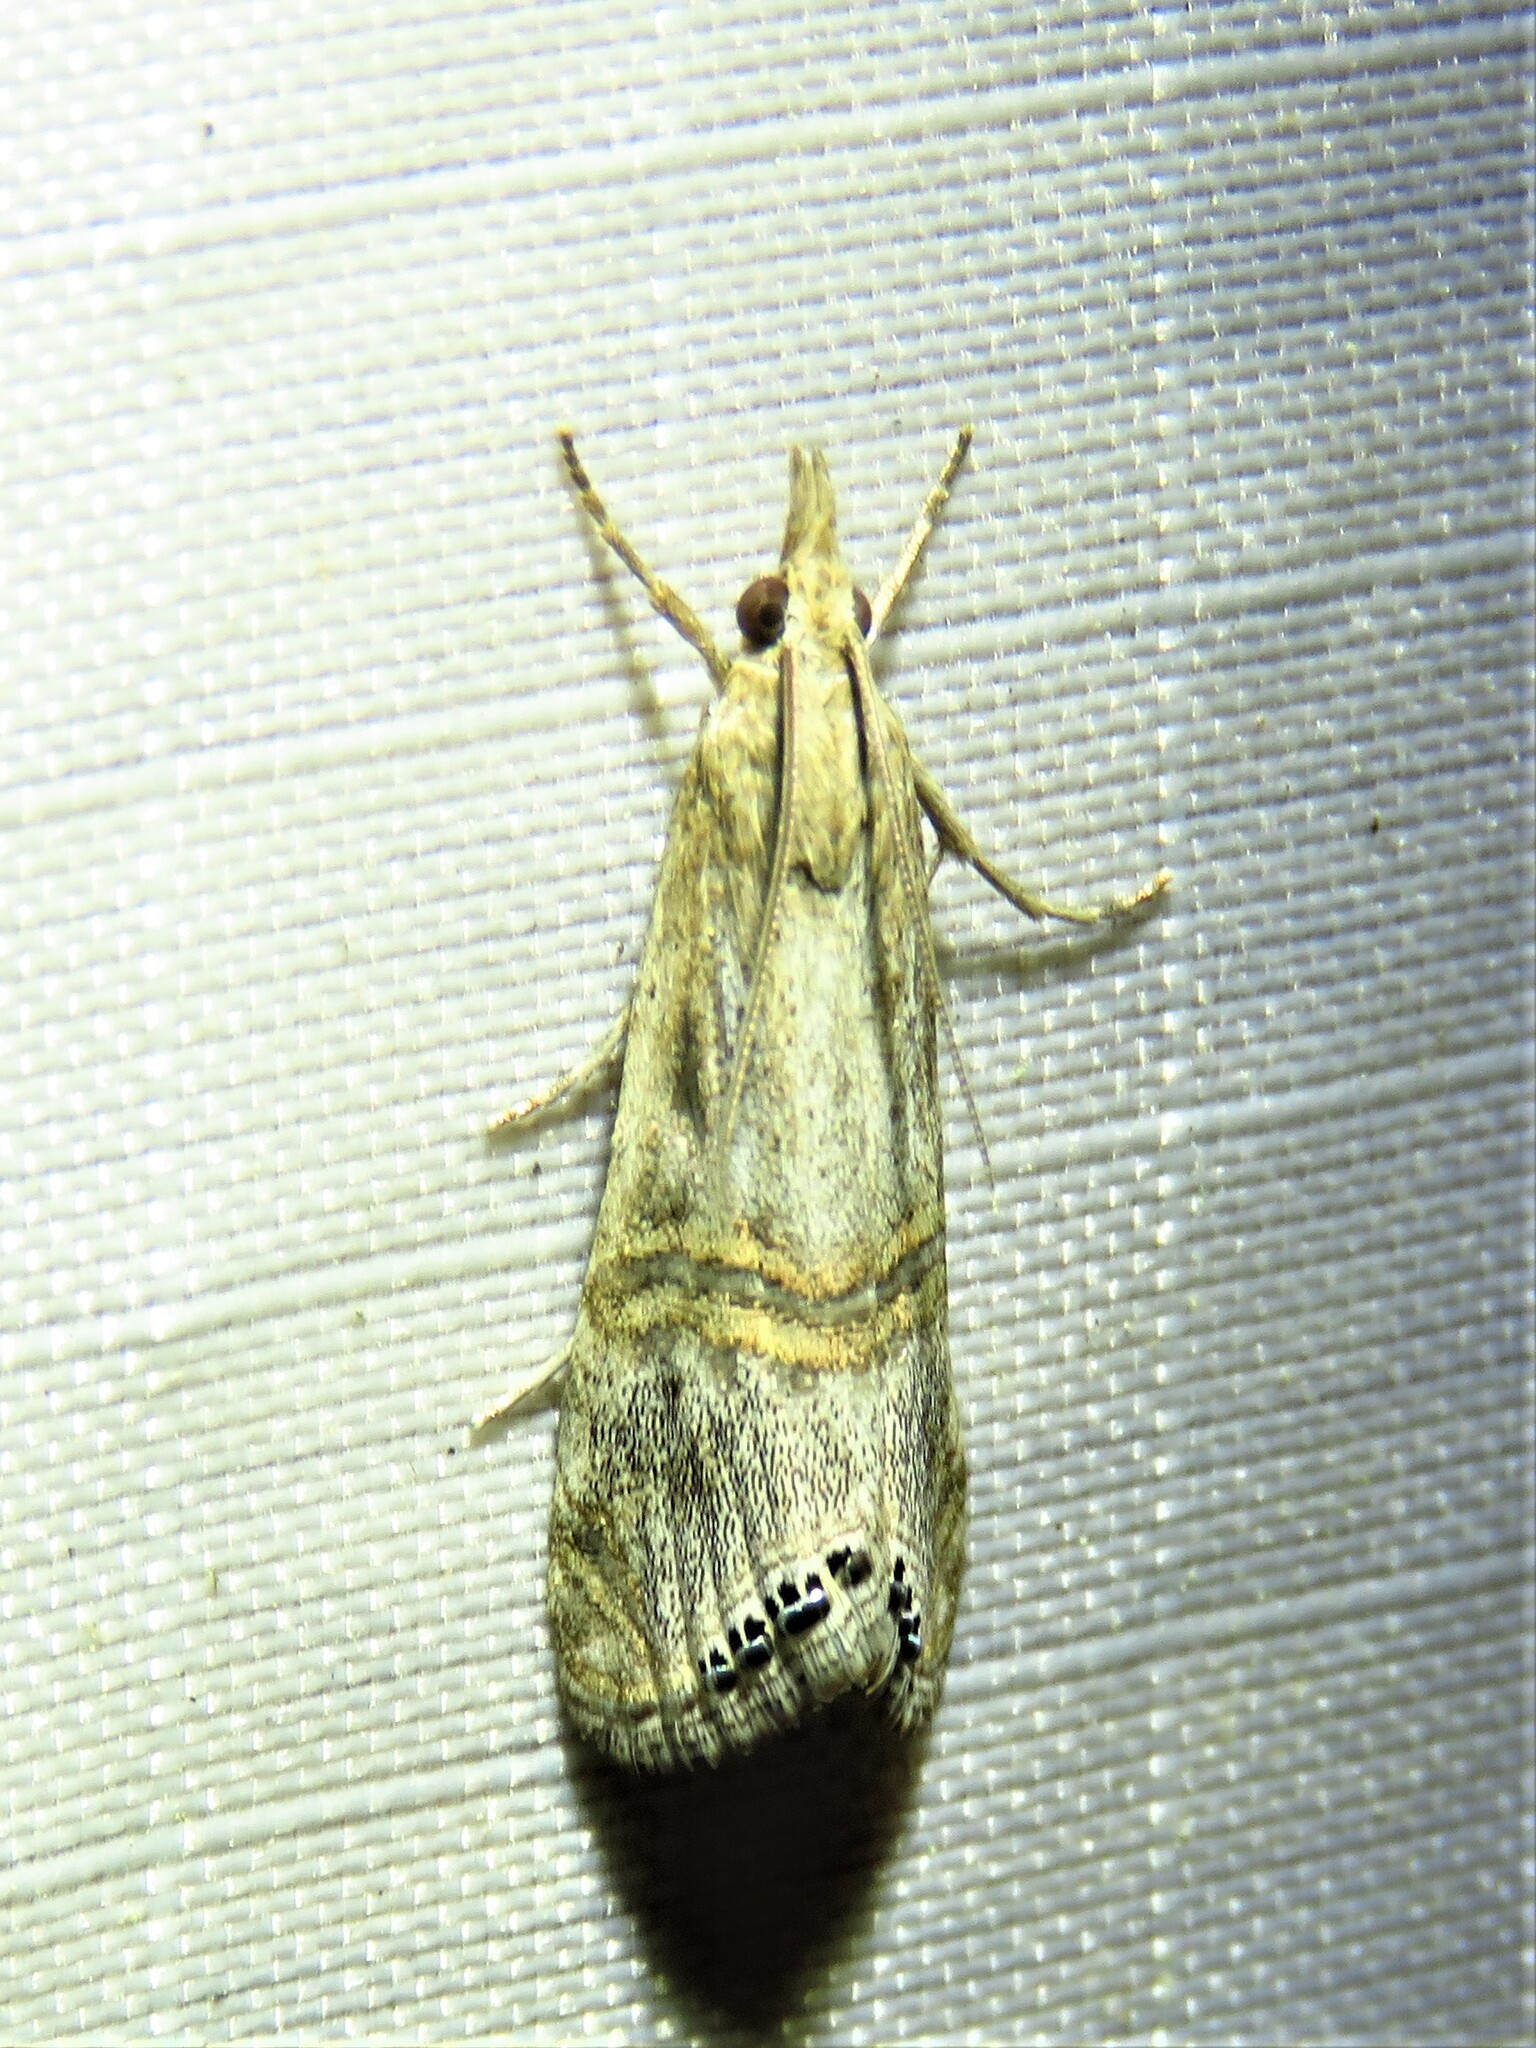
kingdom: Animalia
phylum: Arthropoda
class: Insecta
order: Lepidoptera
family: Crambidae
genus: Euchromius
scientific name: Euchromius ocellea
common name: Necklace veneer moth
